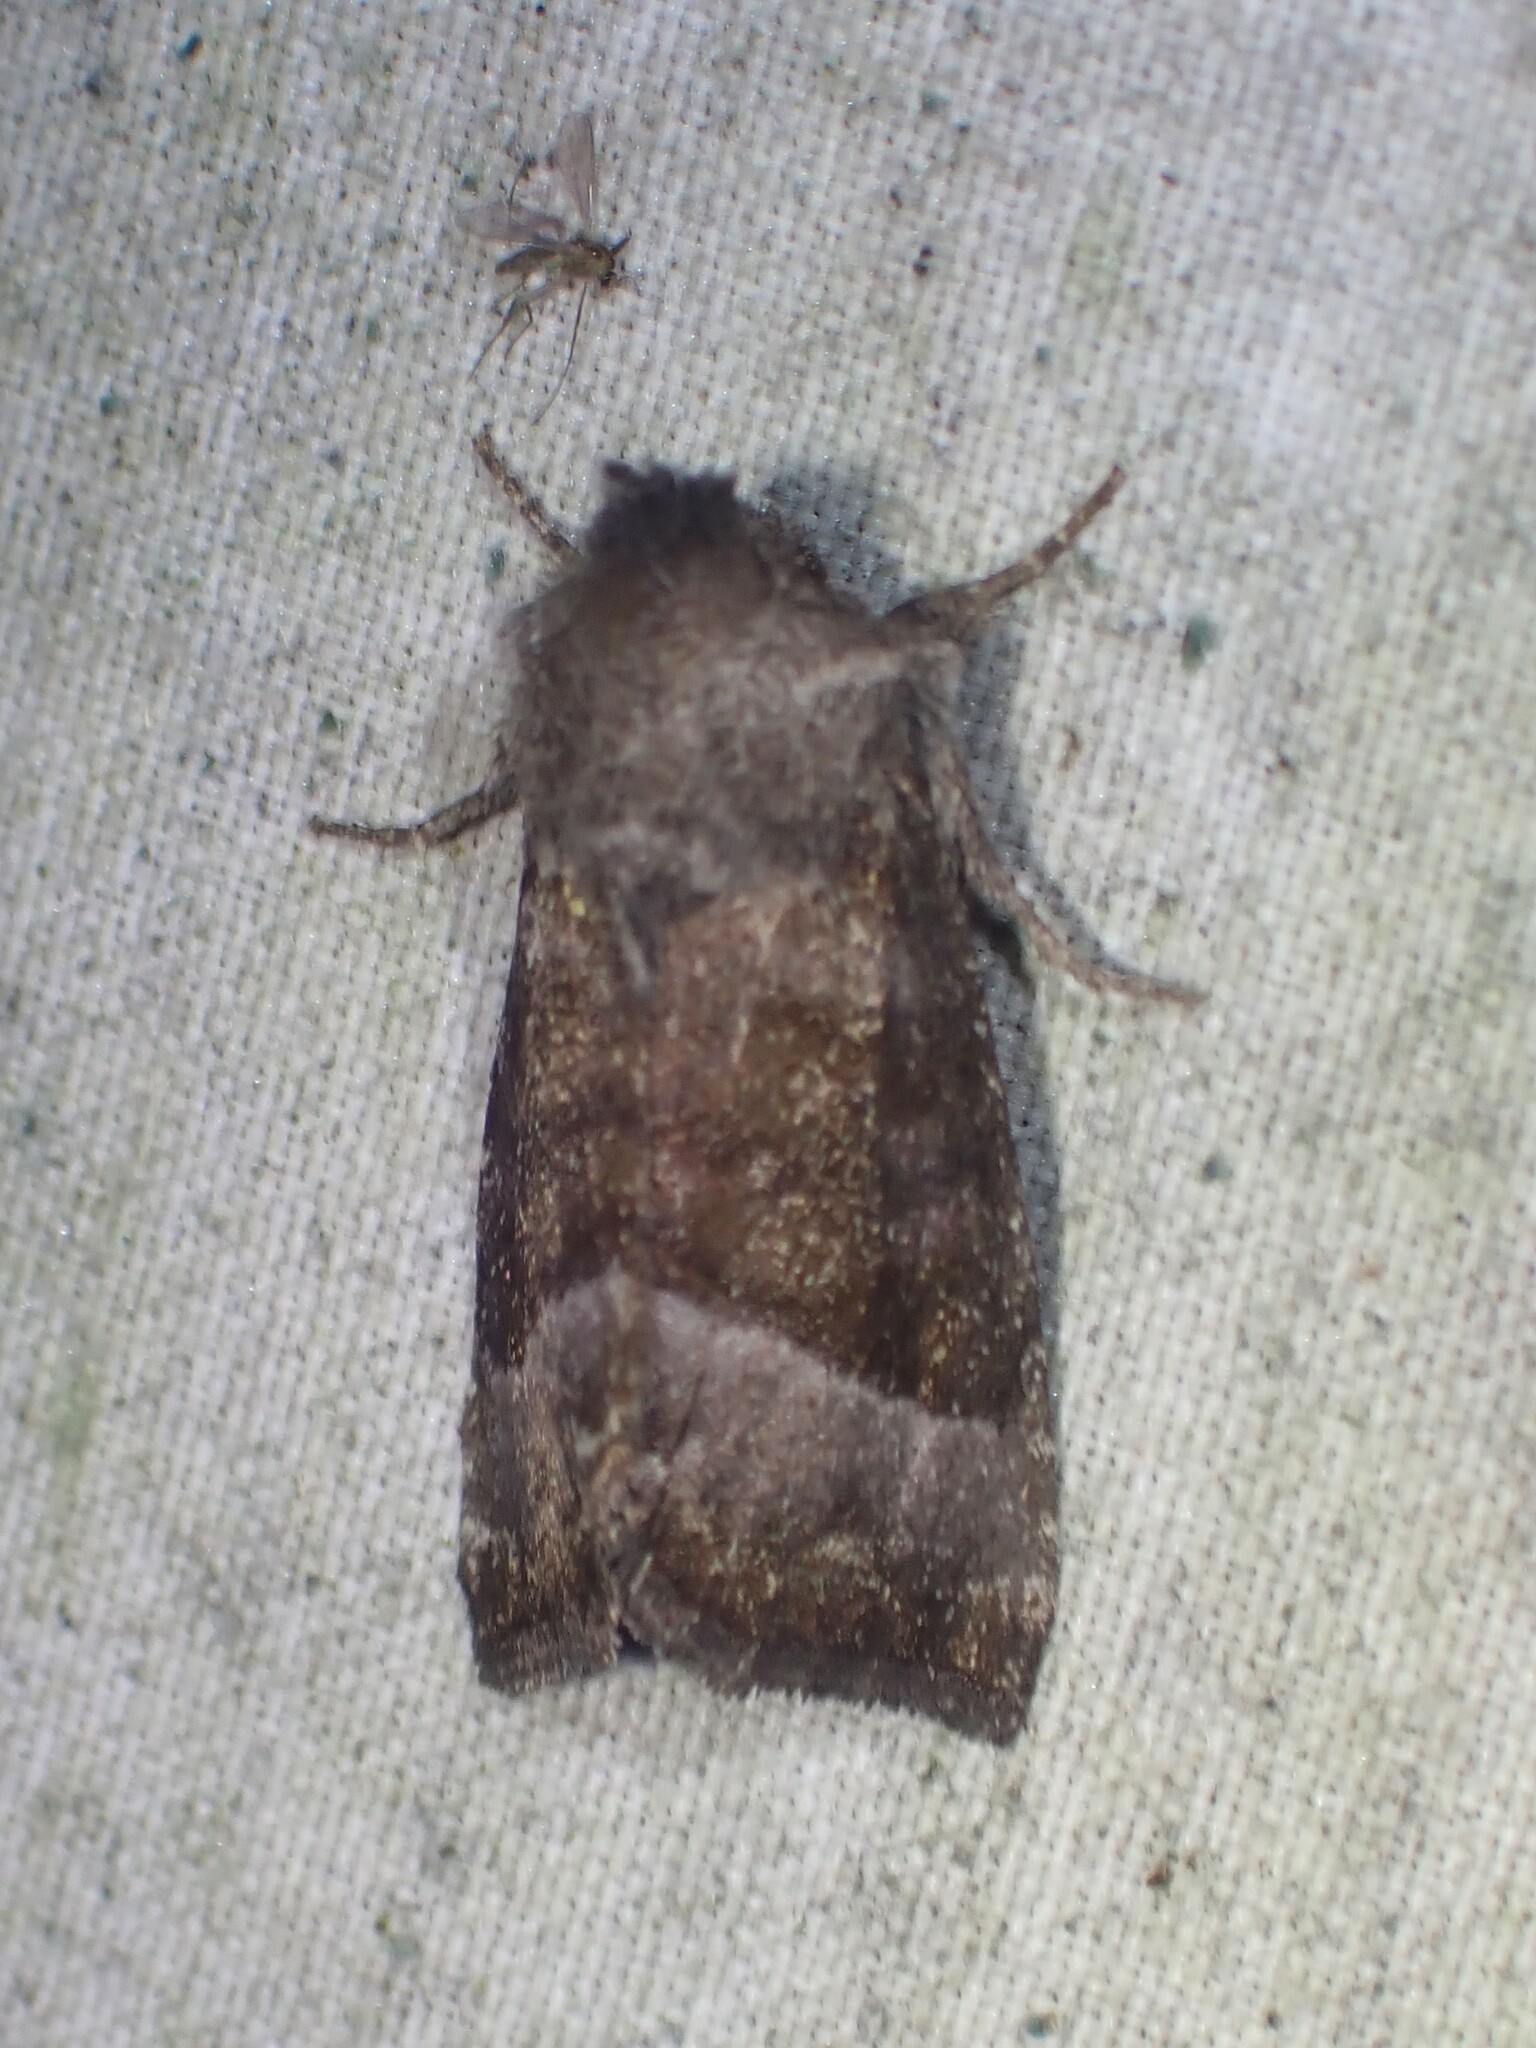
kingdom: Animalia
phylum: Arthropoda
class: Insecta
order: Lepidoptera
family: Noctuidae
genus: Papaipema
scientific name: Papaipema eupatorii
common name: Eupatorium borer moth
